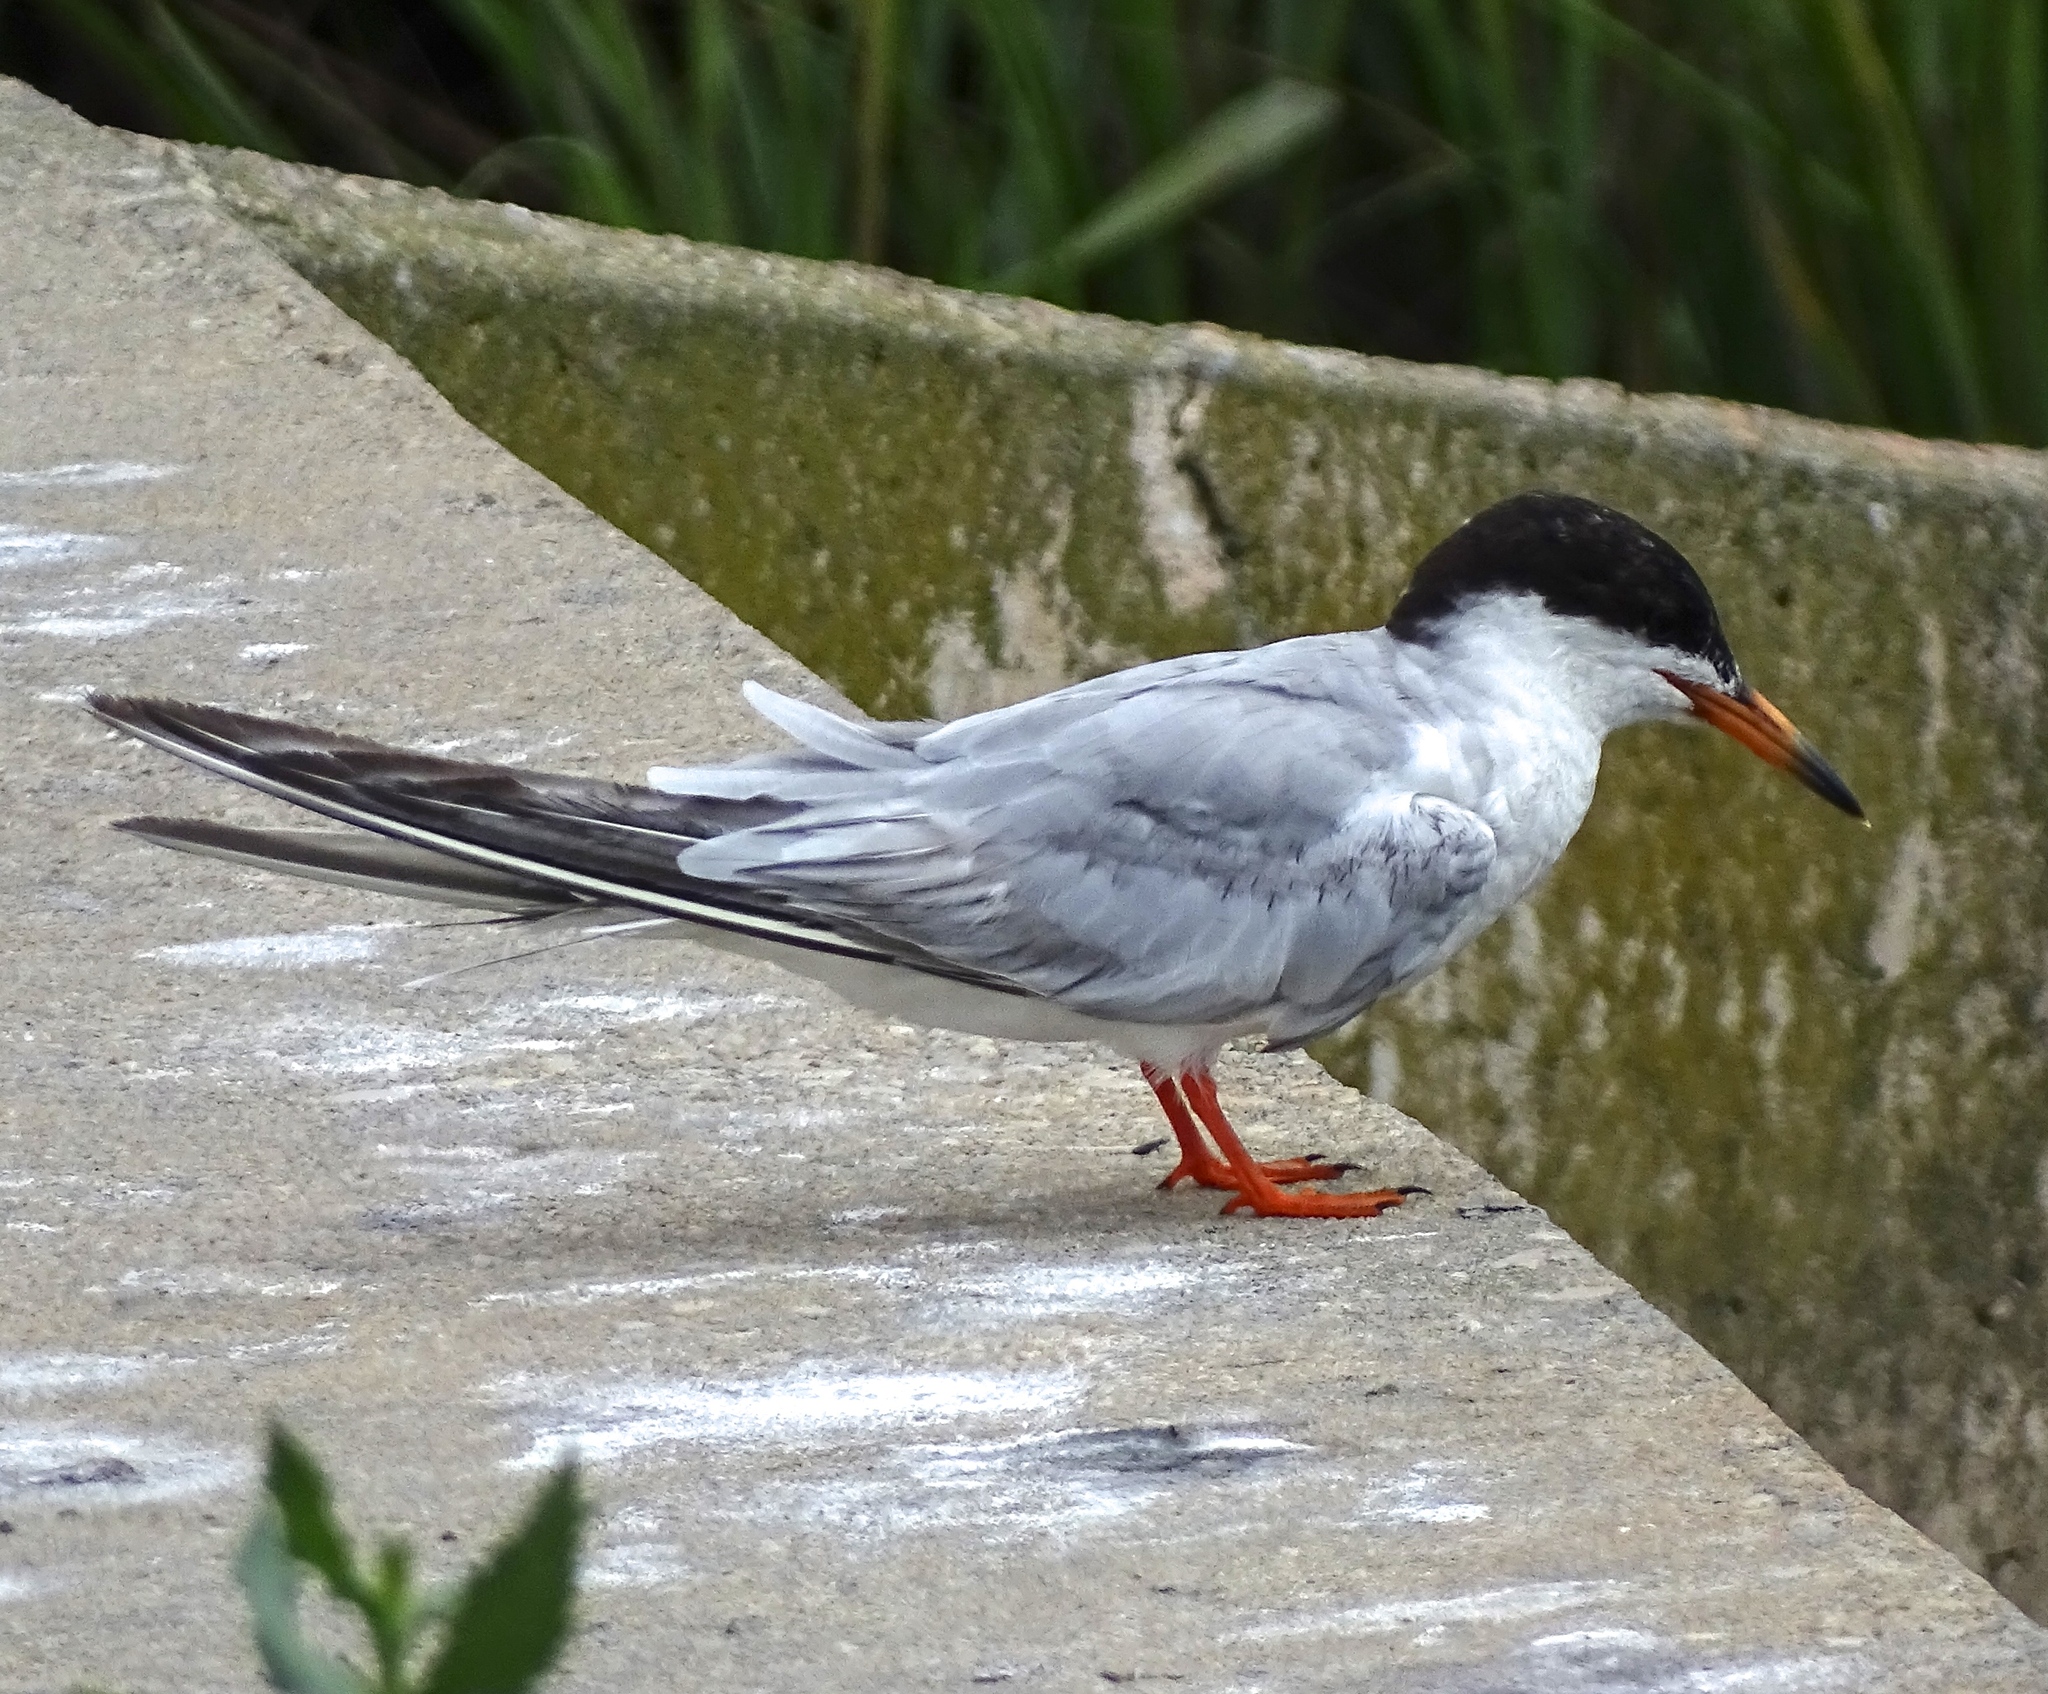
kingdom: Animalia
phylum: Chordata
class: Aves
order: Charadriiformes
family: Laridae
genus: Sterna
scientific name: Sterna forsteri
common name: Forster's tern
